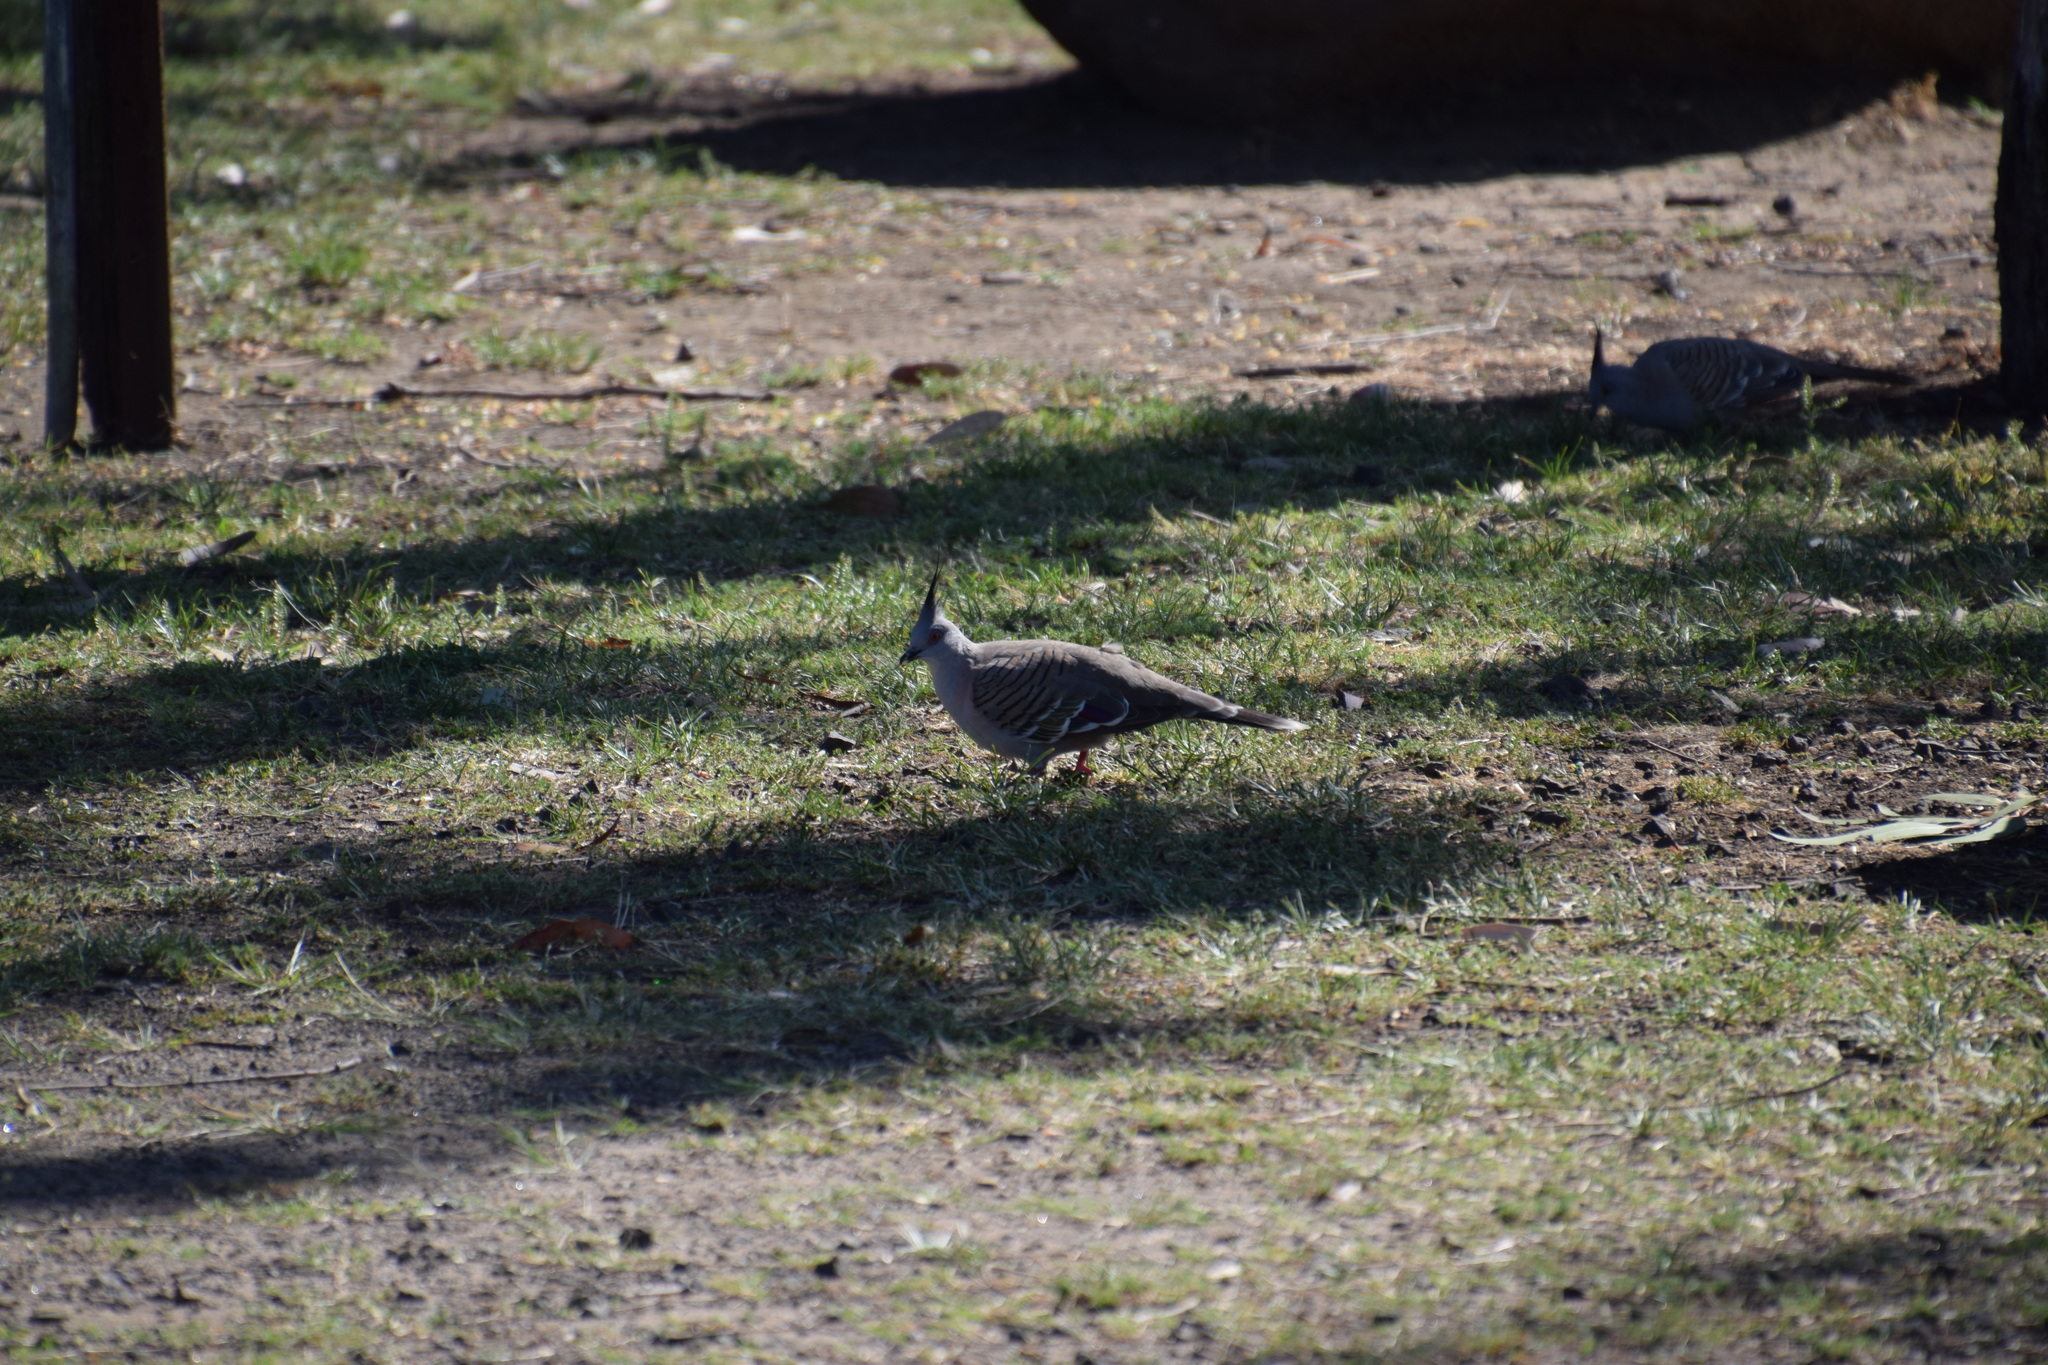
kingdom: Animalia
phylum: Chordata
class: Aves
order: Columbiformes
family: Columbidae
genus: Ocyphaps
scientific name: Ocyphaps lophotes
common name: Crested pigeon
